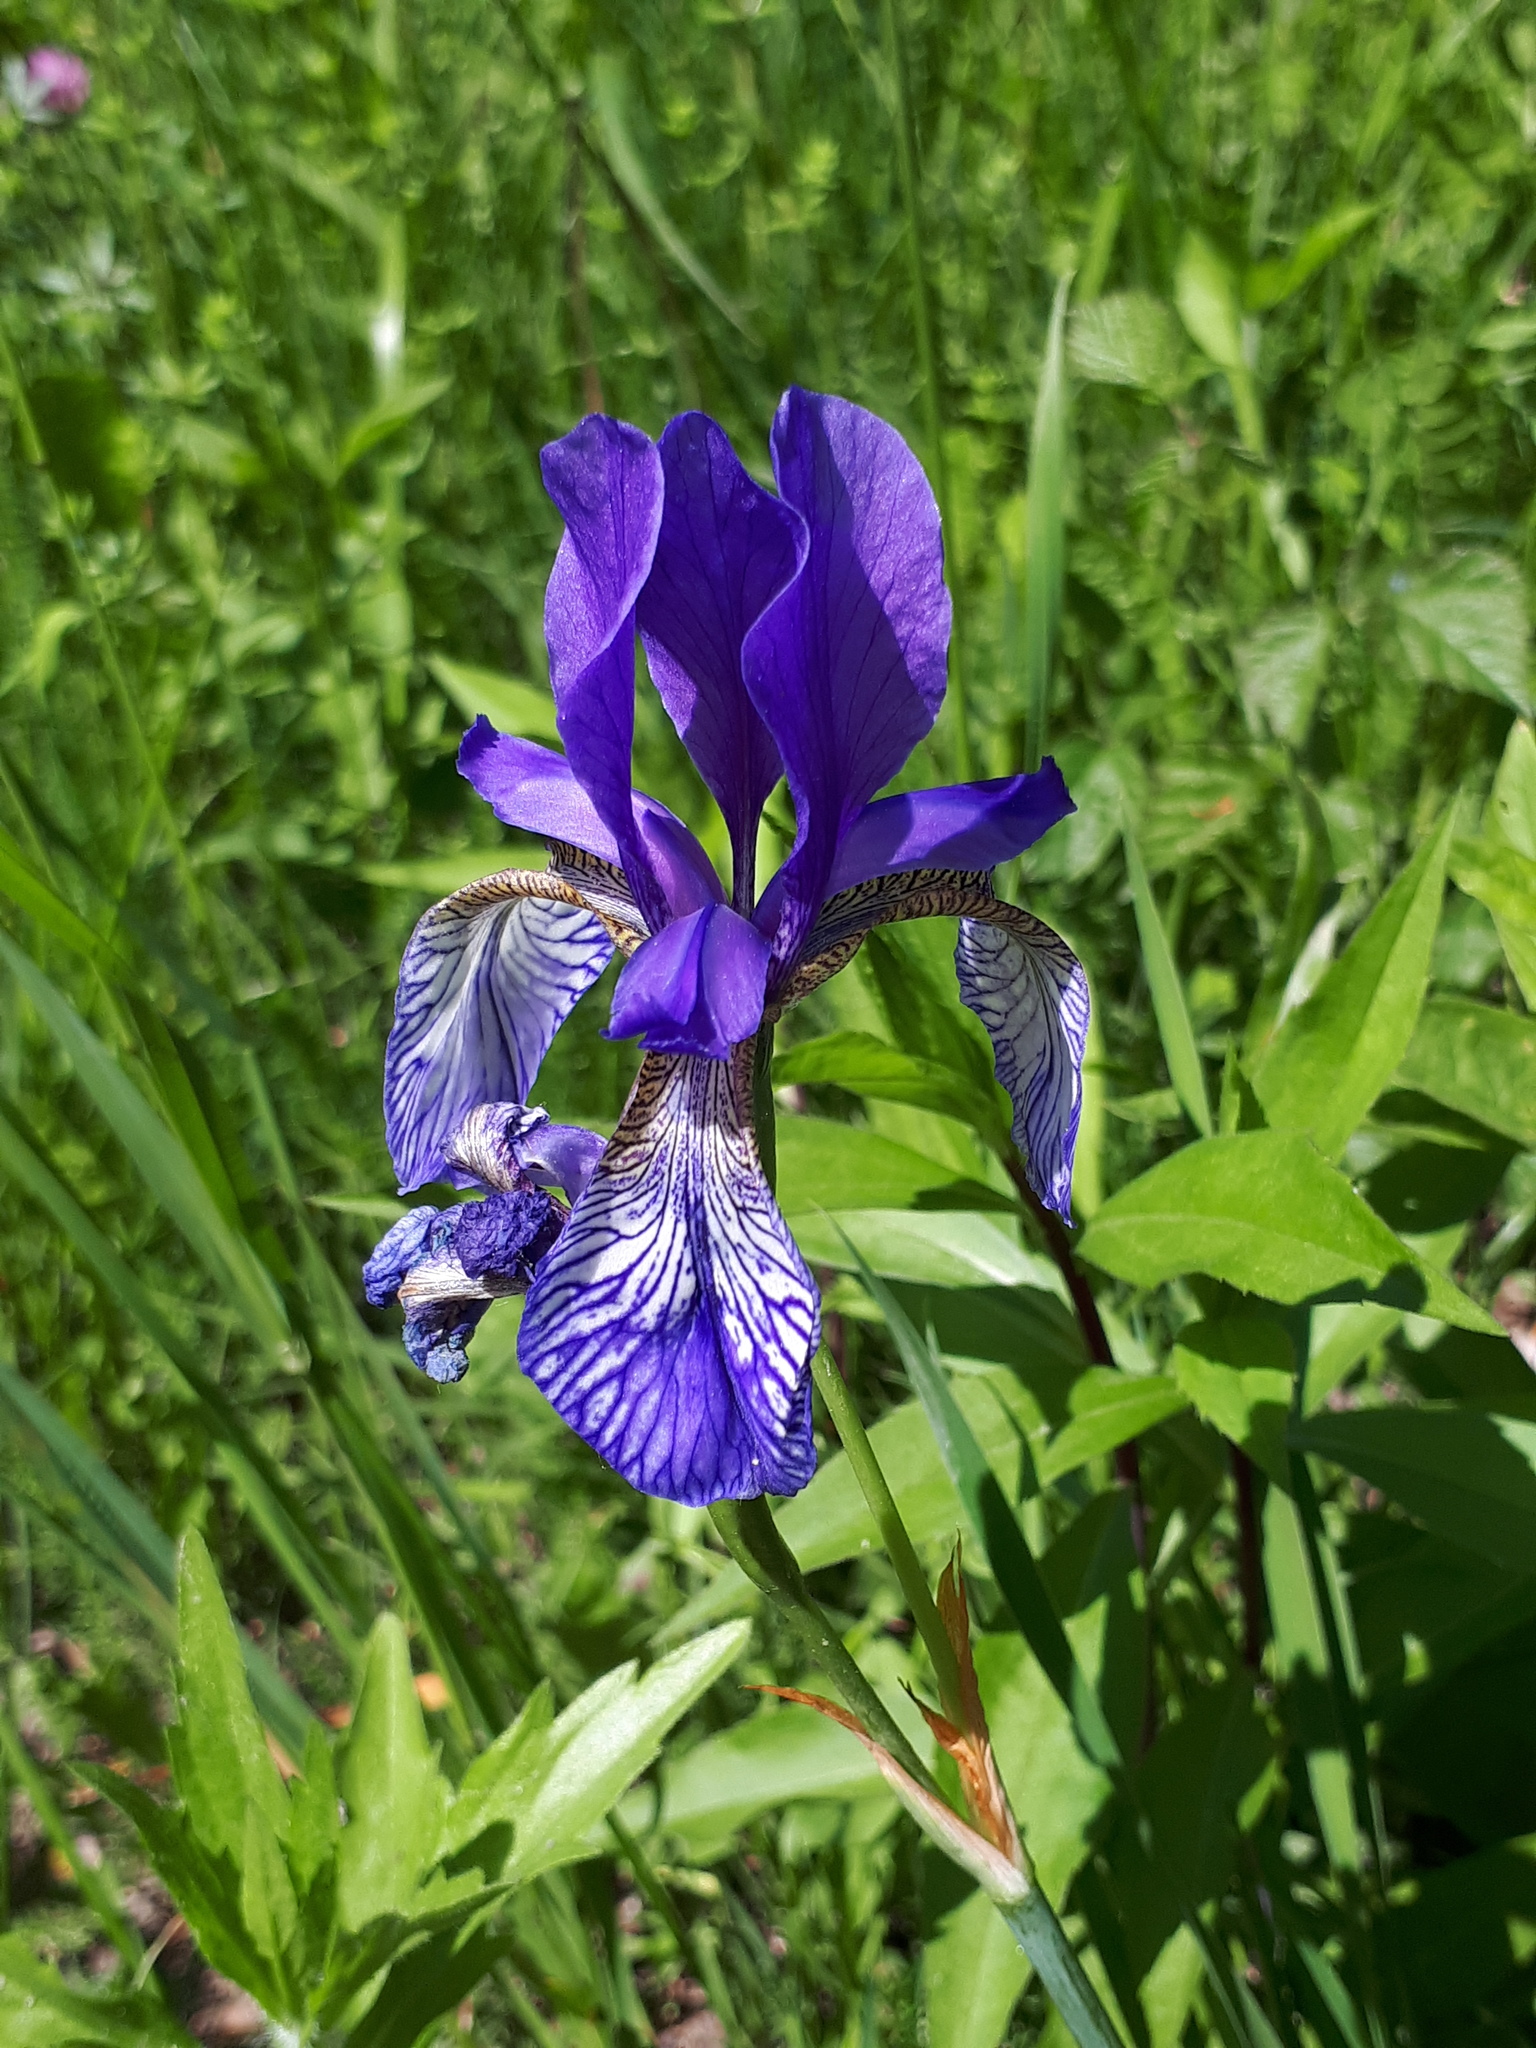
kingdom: Plantae
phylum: Tracheophyta
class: Liliopsida
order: Asparagales
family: Iridaceae
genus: Iris
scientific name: Iris sibirica
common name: Siberian iris
